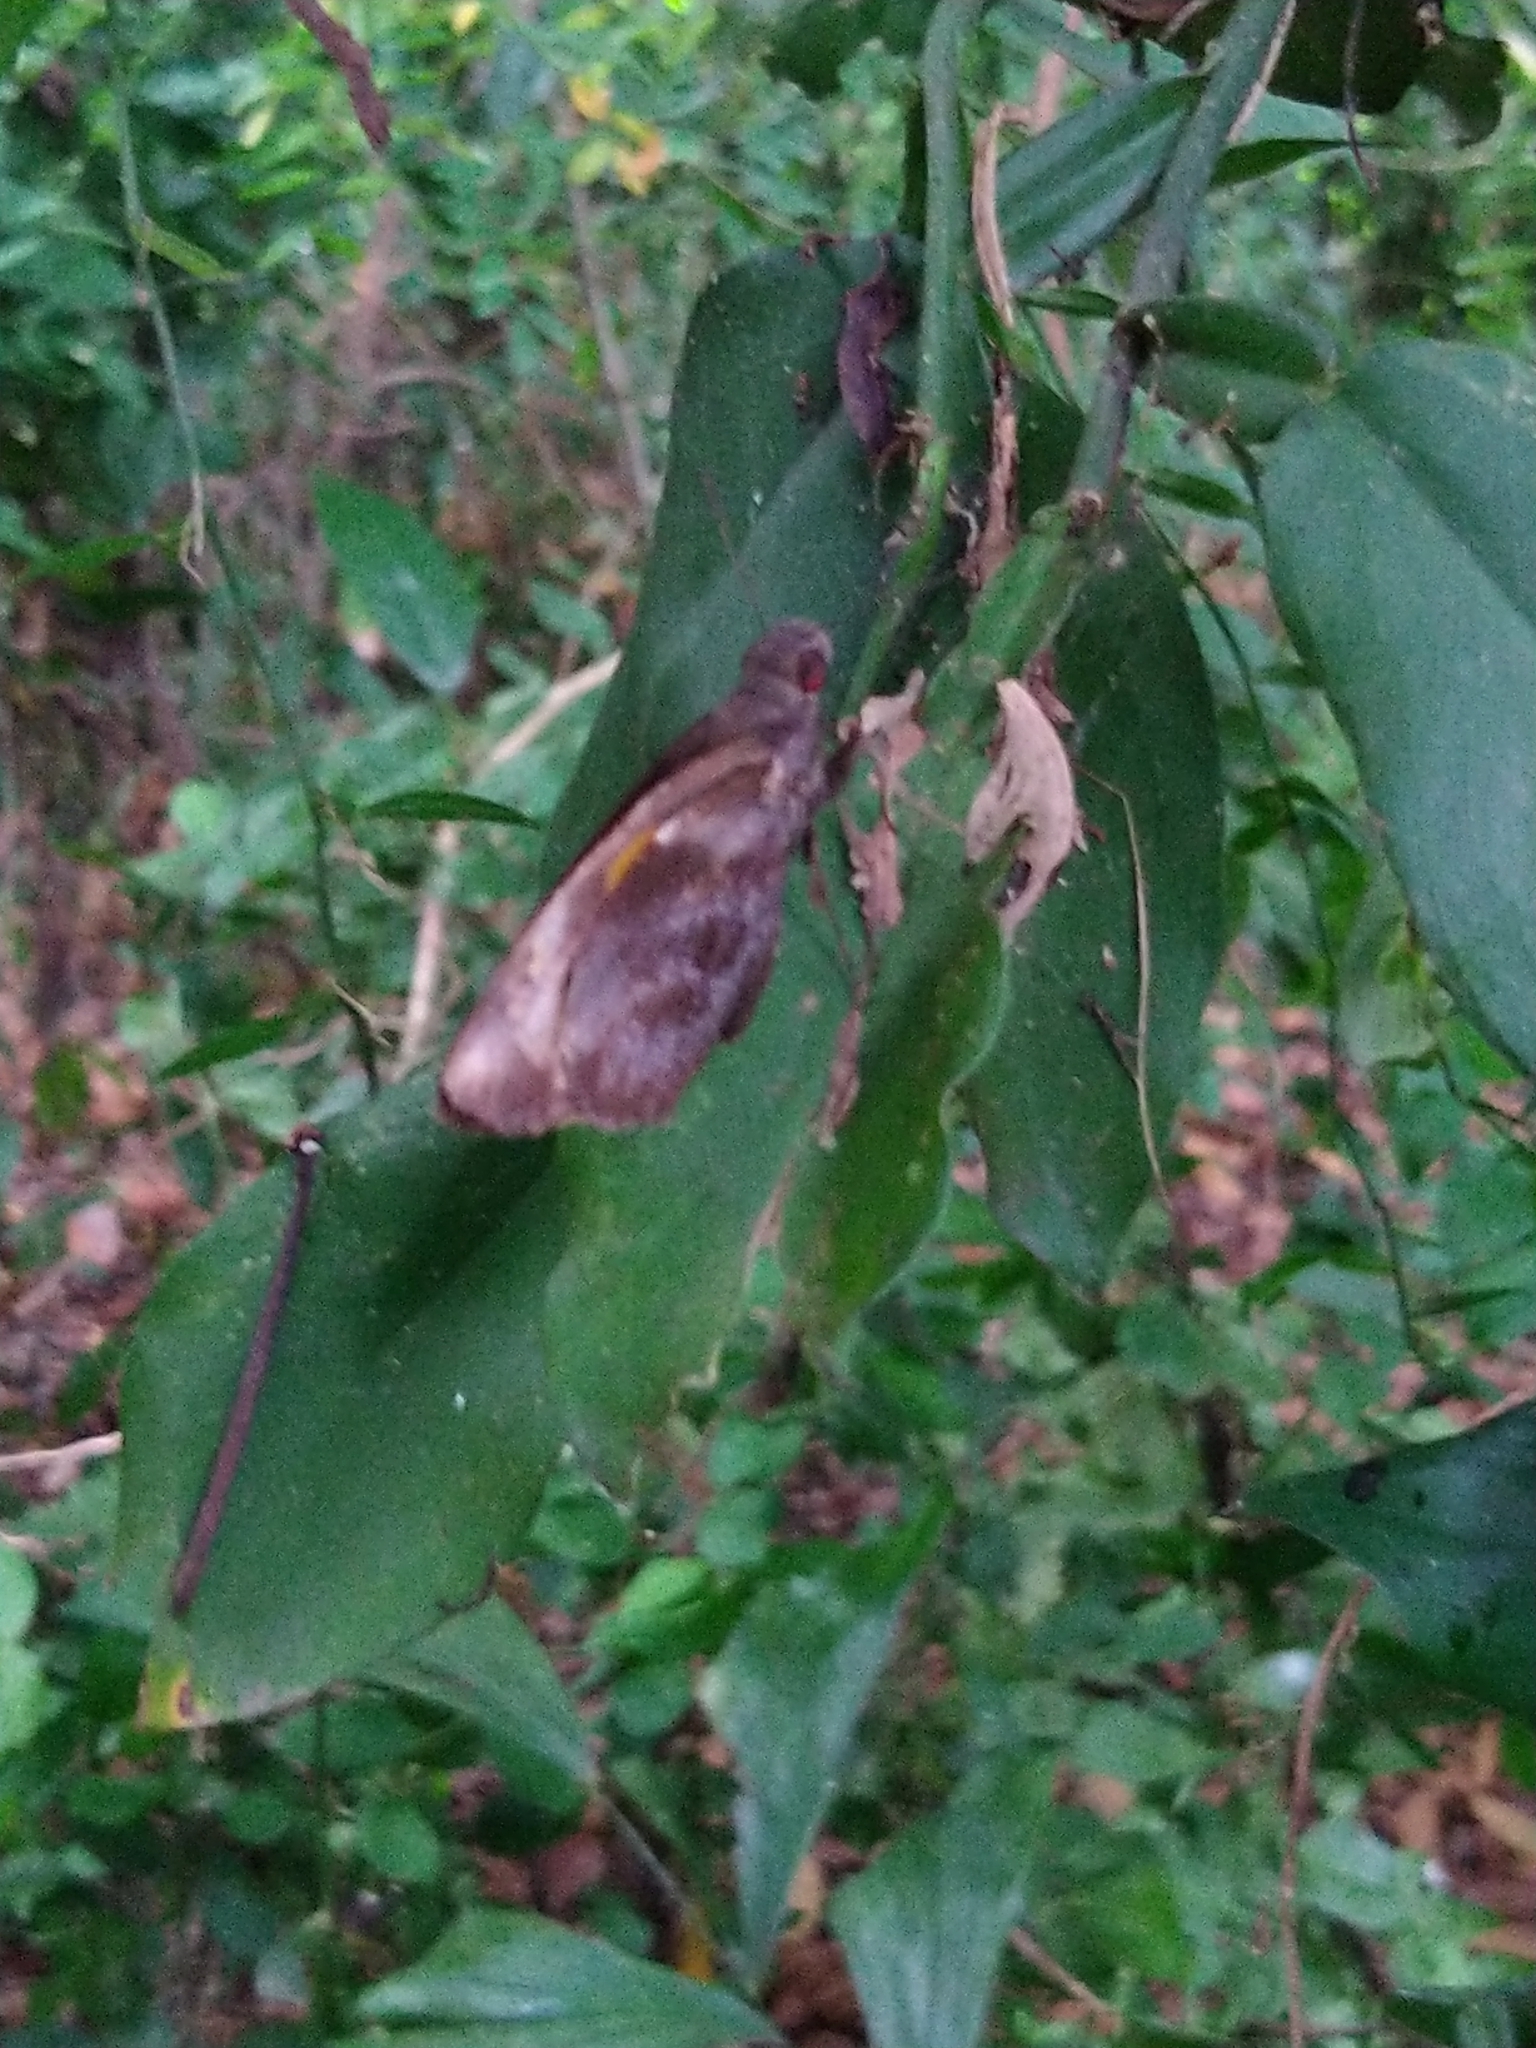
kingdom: Animalia
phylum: Arthropoda
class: Insecta
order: Lepidoptera
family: Hesperiidae
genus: Gangara
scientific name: Gangara thyrsis
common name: Giant redeye
